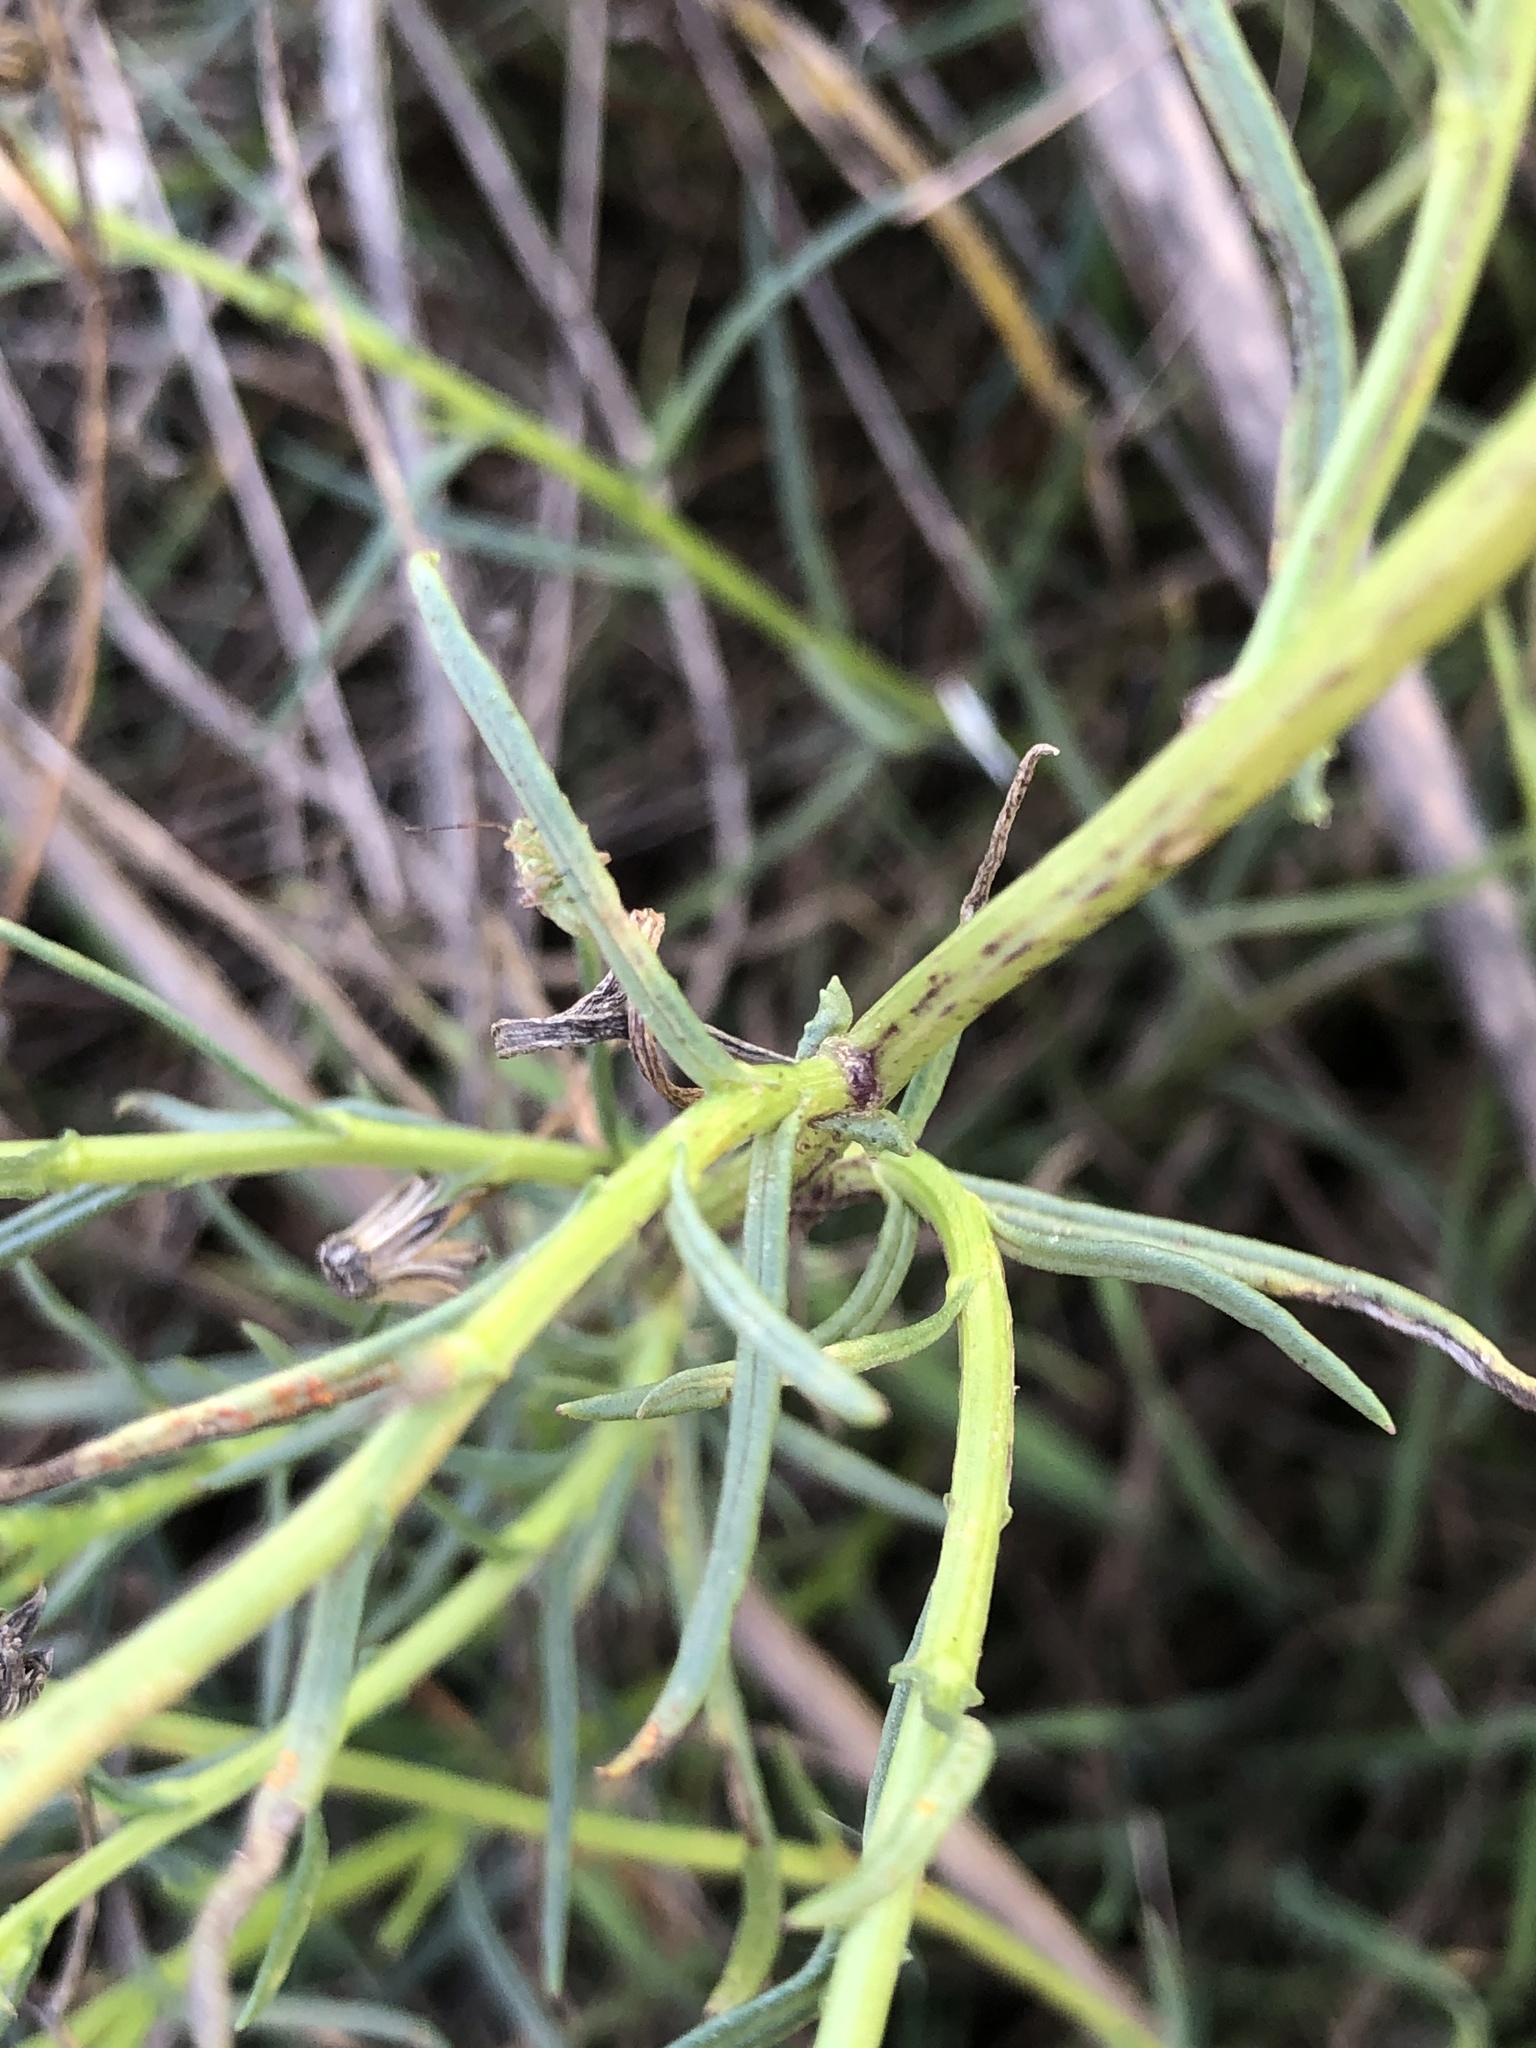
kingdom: Plantae
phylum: Tracheophyta
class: Magnoliopsida
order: Asterales
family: Asteraceae
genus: Senecio
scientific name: Senecio inaequidens
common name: Narrow-leaved ragwort
